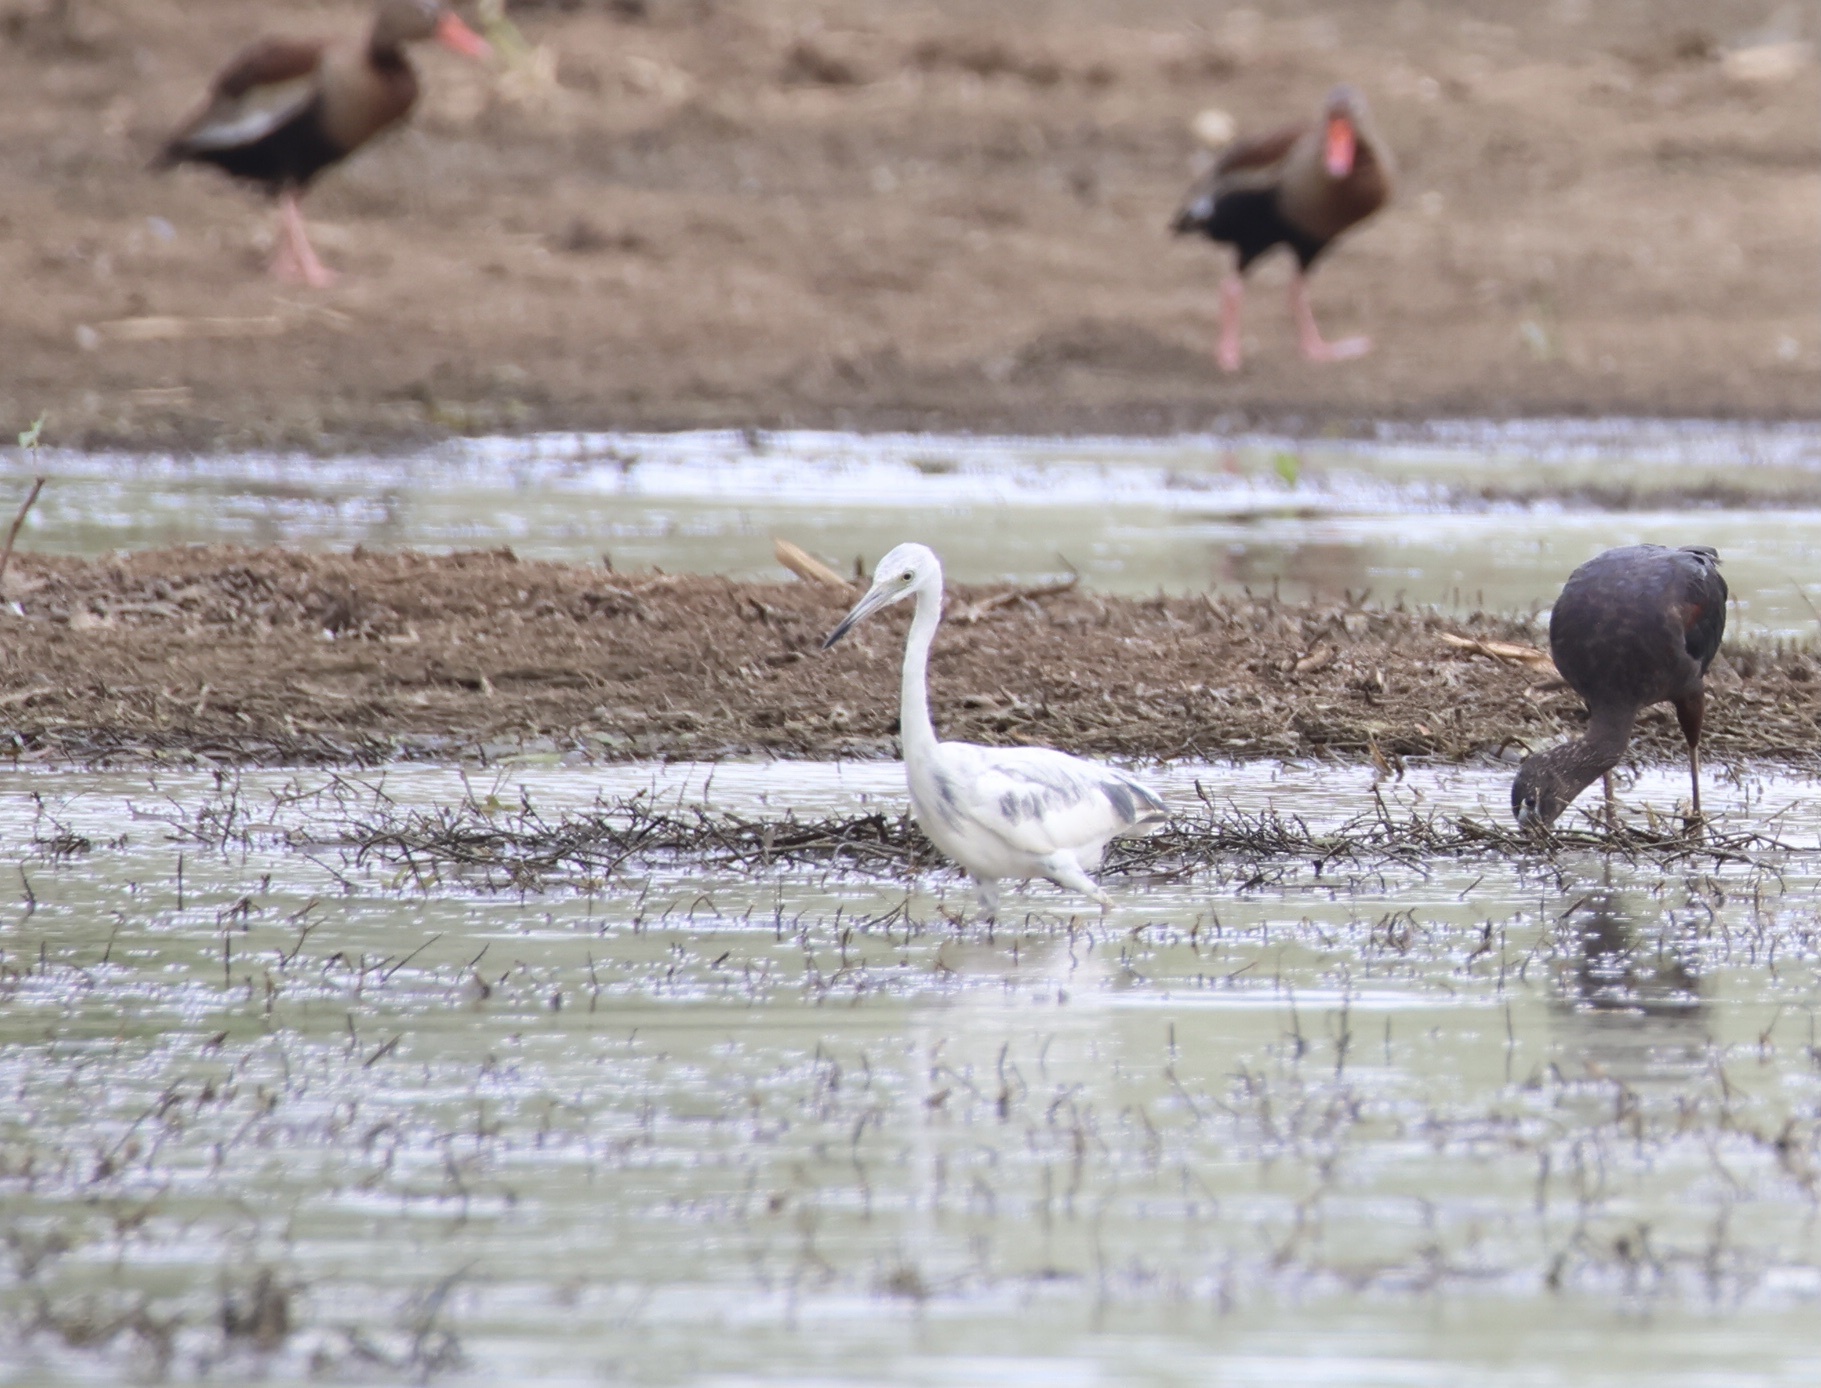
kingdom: Animalia
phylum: Chordata
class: Aves
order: Pelecaniformes
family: Ardeidae
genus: Egretta
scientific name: Egretta caerulea
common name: Little blue heron
